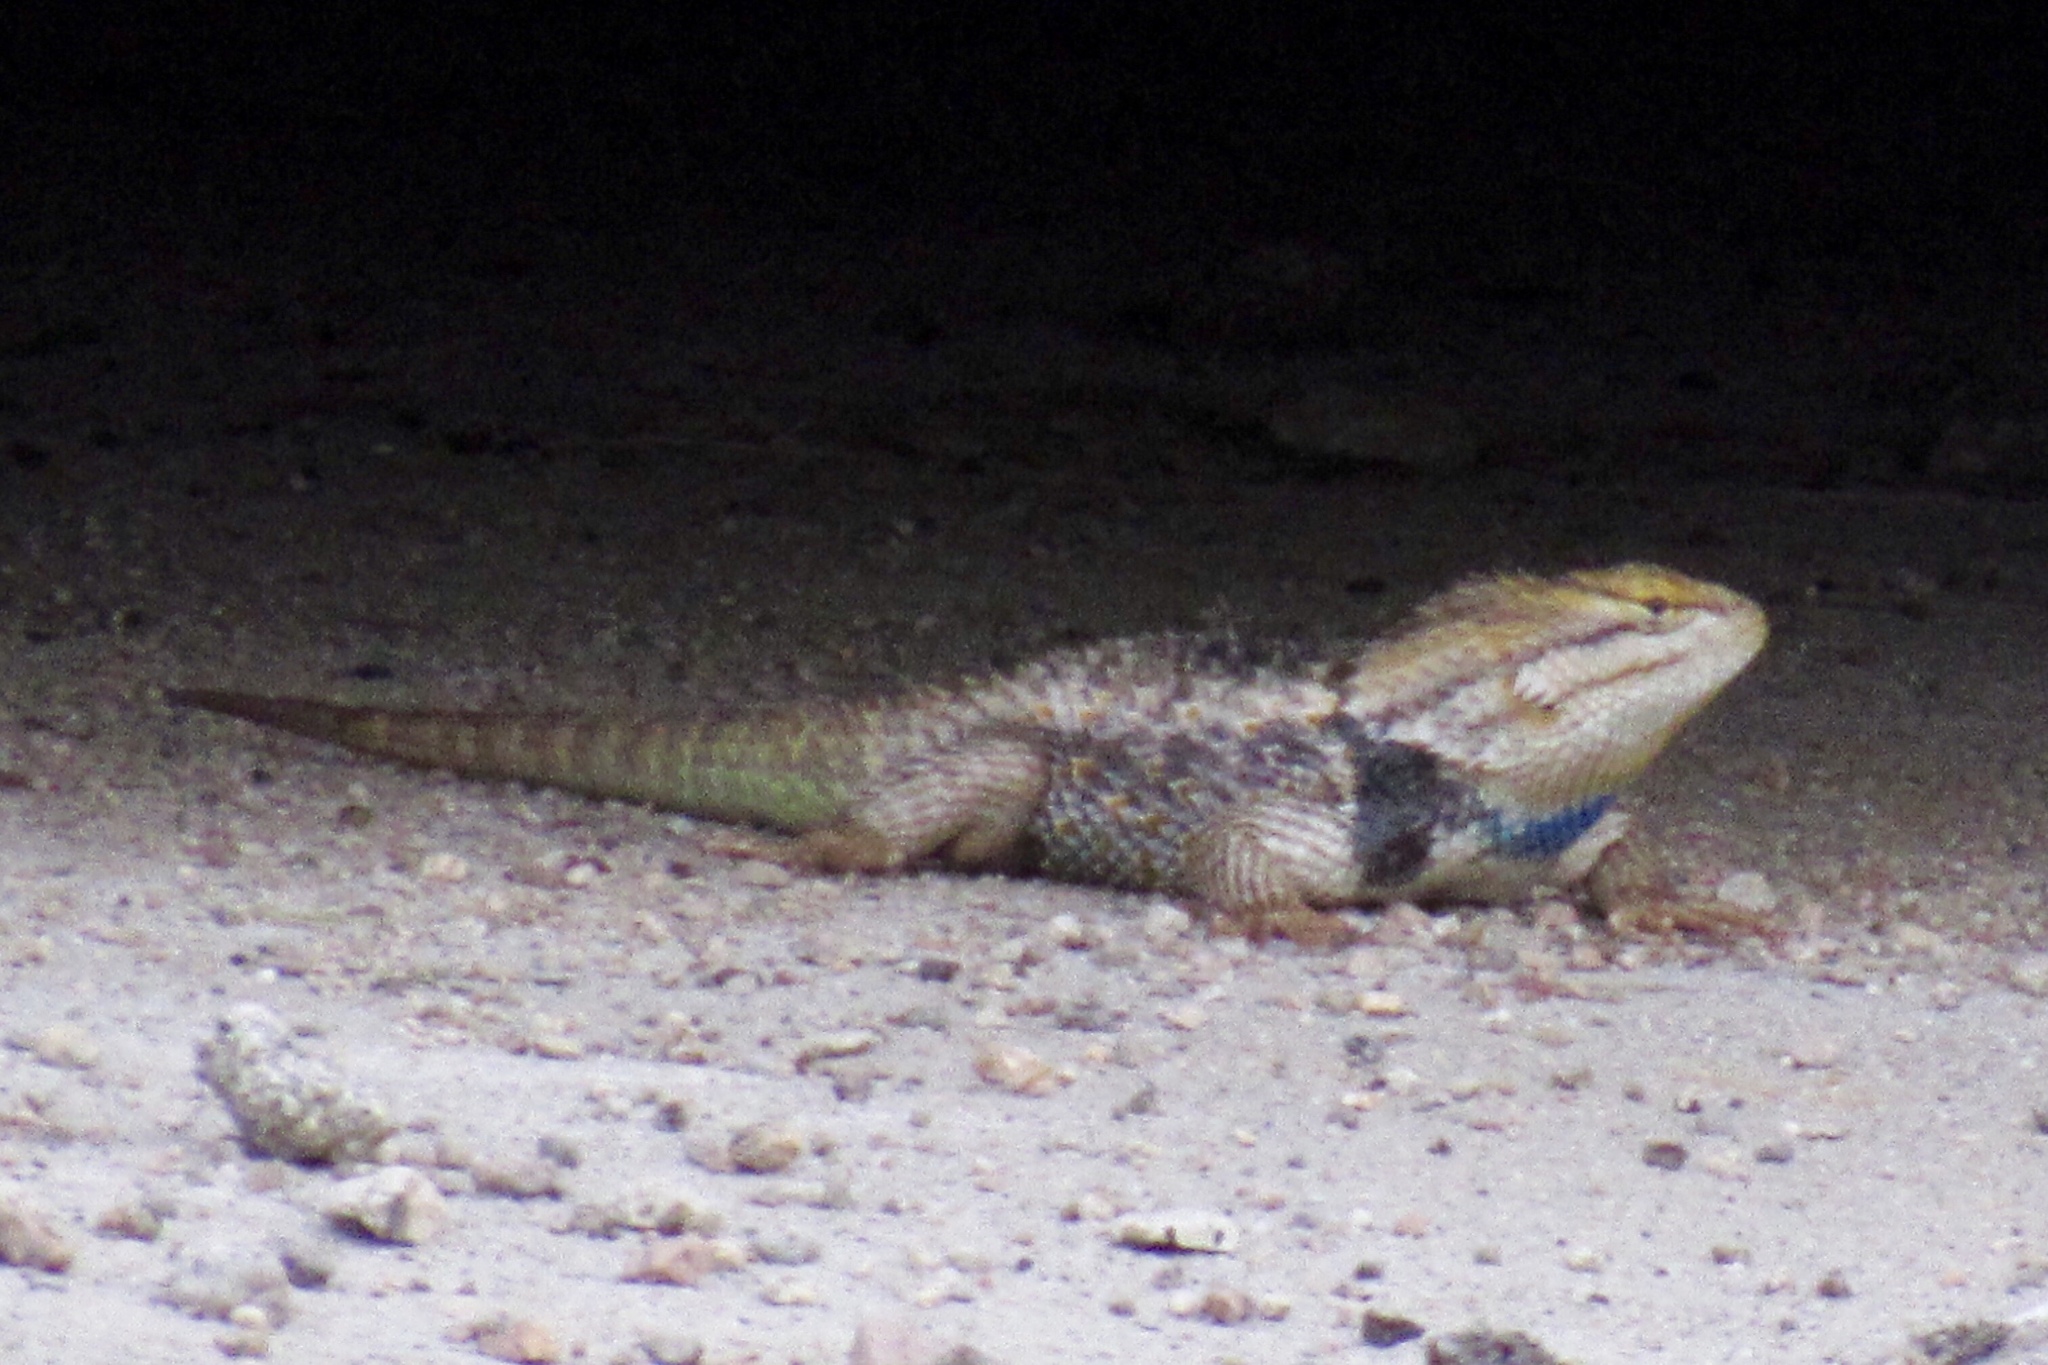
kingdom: Animalia
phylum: Chordata
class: Squamata
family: Phrynosomatidae
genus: Sceloporus
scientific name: Sceloporus magister
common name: Desert spiny lizard
